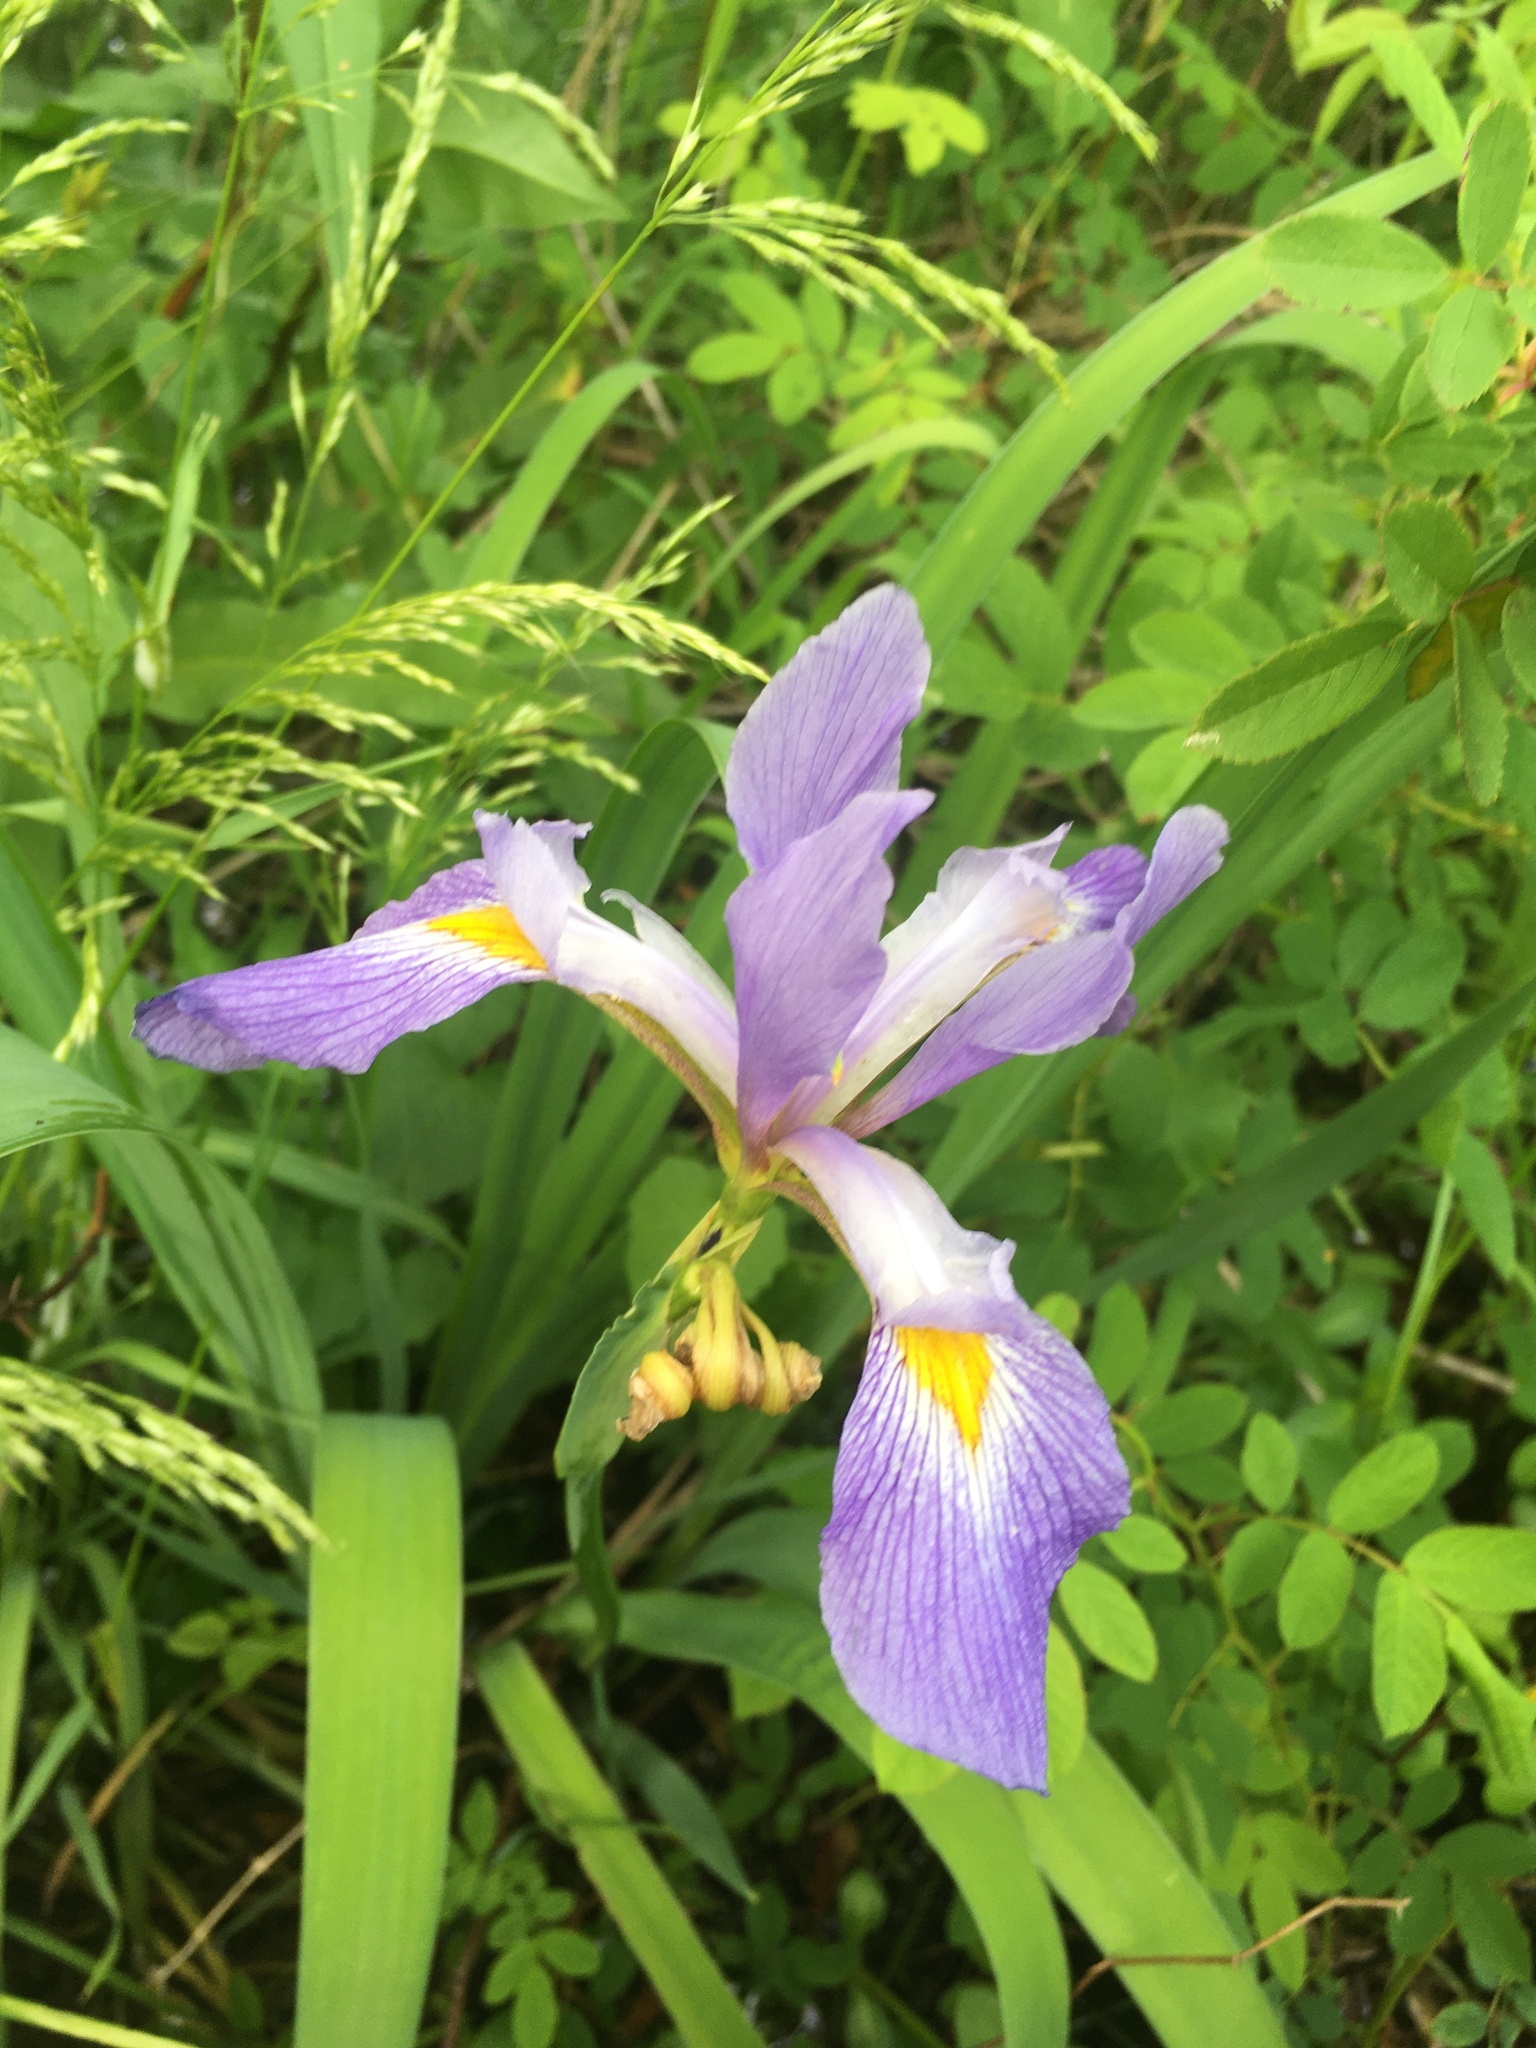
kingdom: Plantae
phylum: Tracheophyta
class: Liliopsida
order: Asparagales
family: Iridaceae
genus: Iris
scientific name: Iris virginica
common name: Southern blue flag
